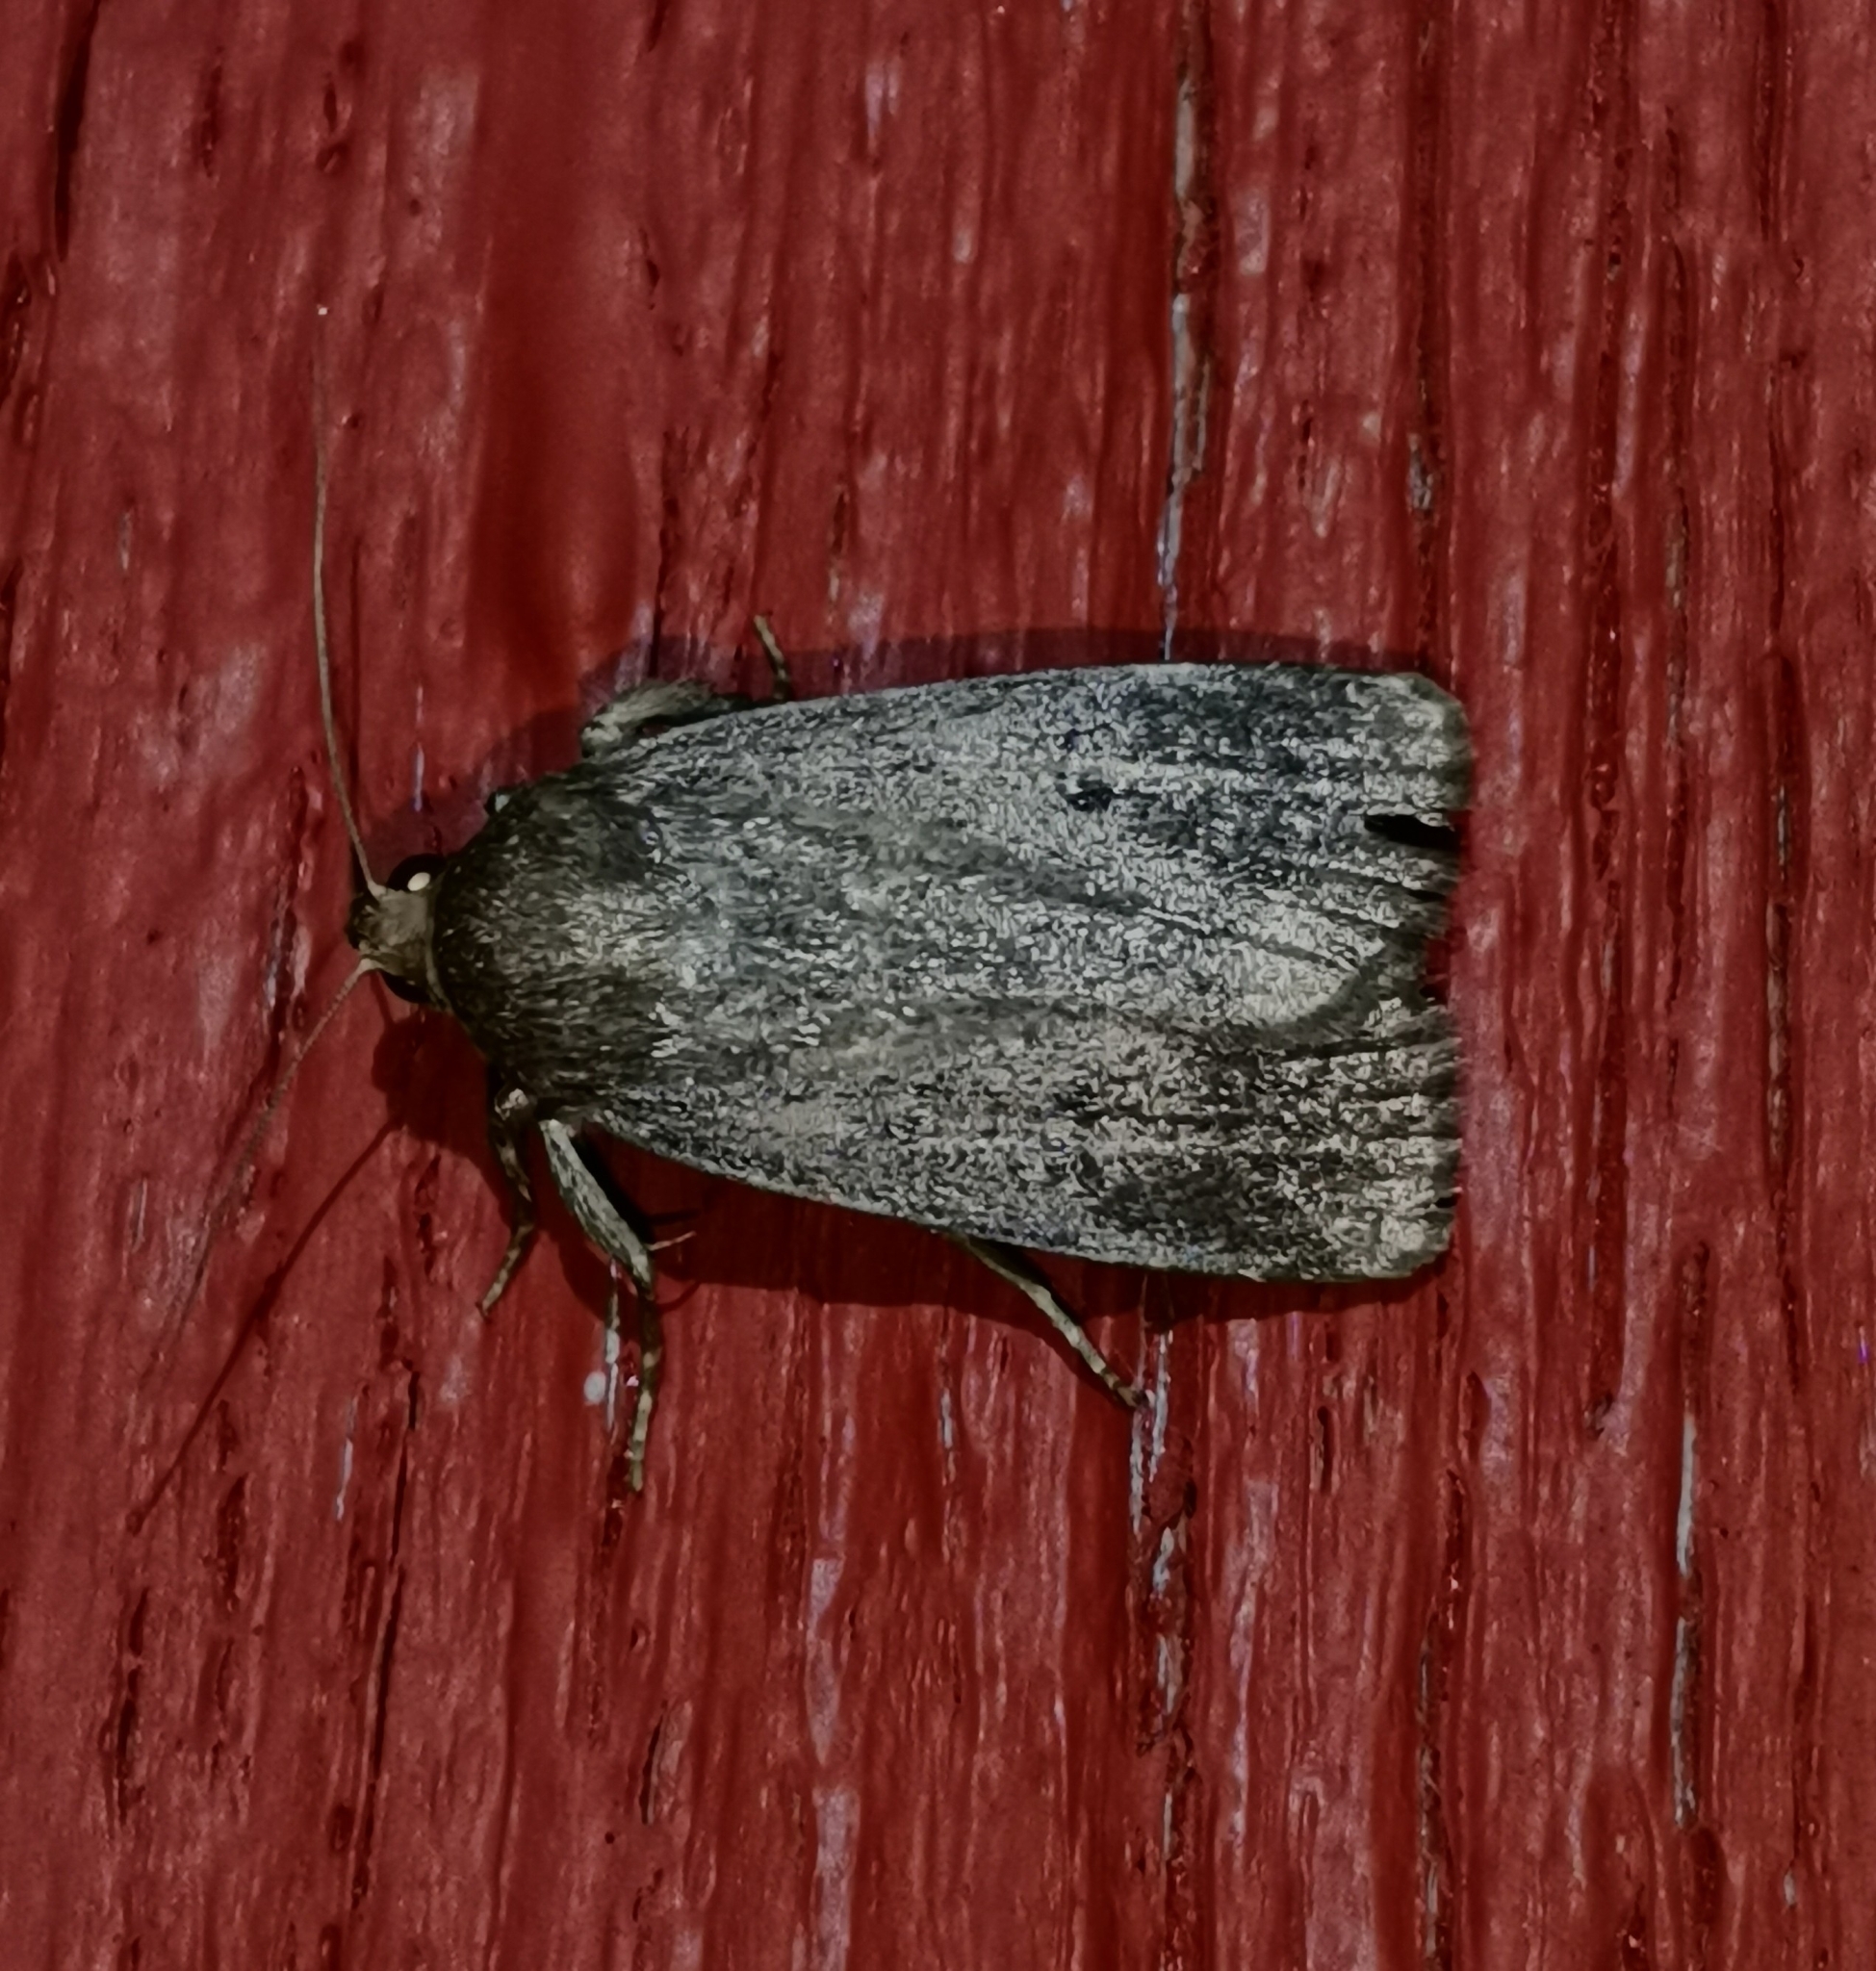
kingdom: Animalia
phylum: Arthropoda
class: Insecta
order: Lepidoptera
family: Noctuidae
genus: Amphipyra
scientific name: Amphipyra tragopoginis
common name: Mouse moth
